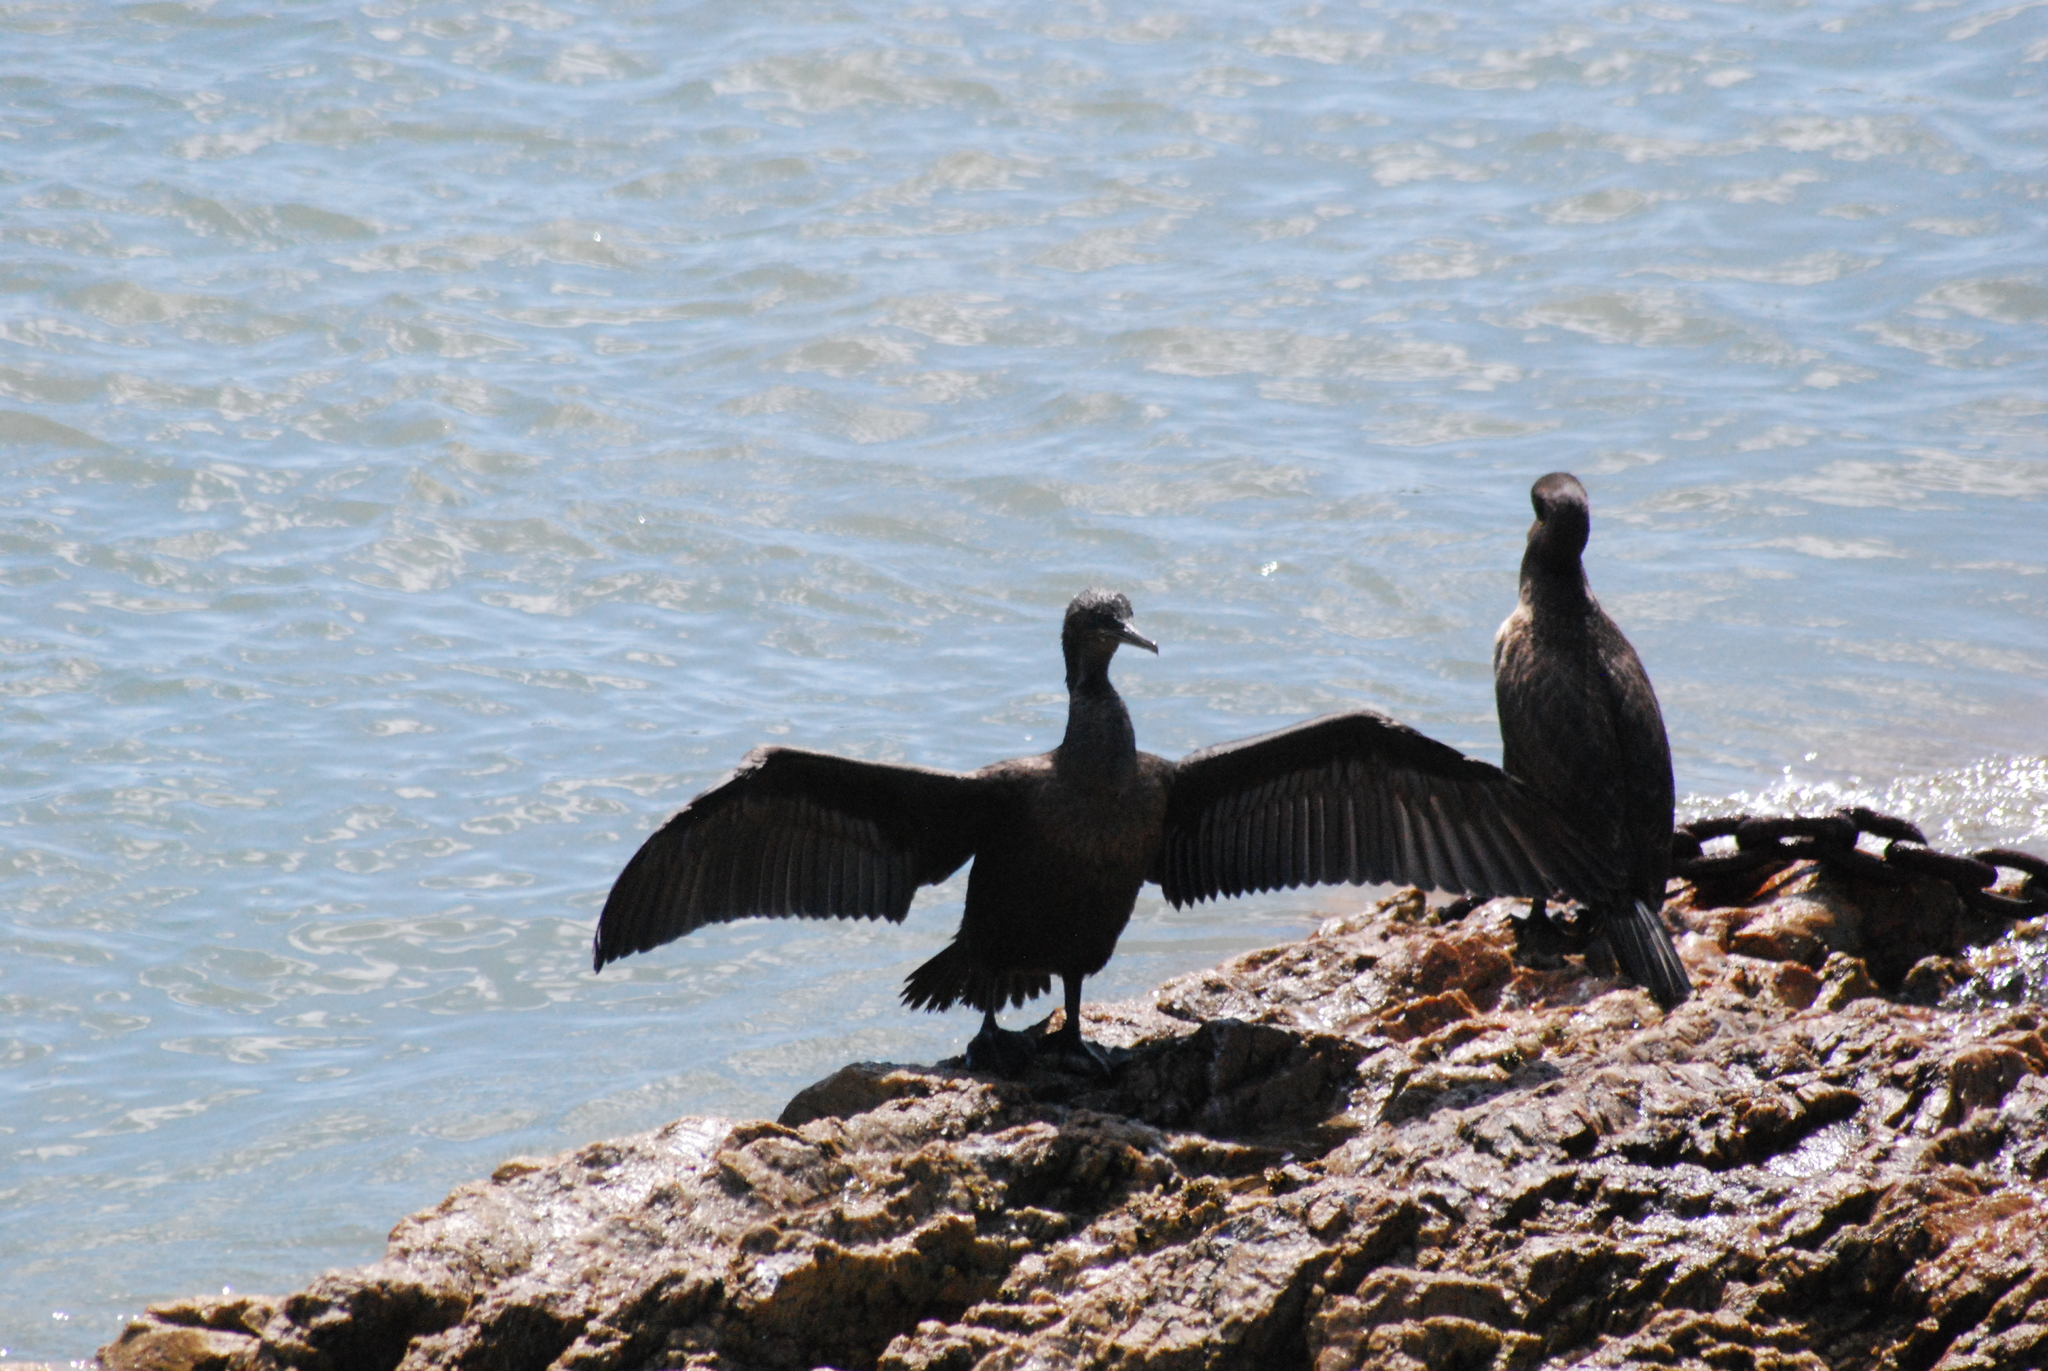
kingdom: Animalia
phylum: Chordata
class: Aves
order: Suliformes
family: Phalacrocoracidae
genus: Phalacrocorax
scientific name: Phalacrocorax capensis
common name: Cape cormorant
